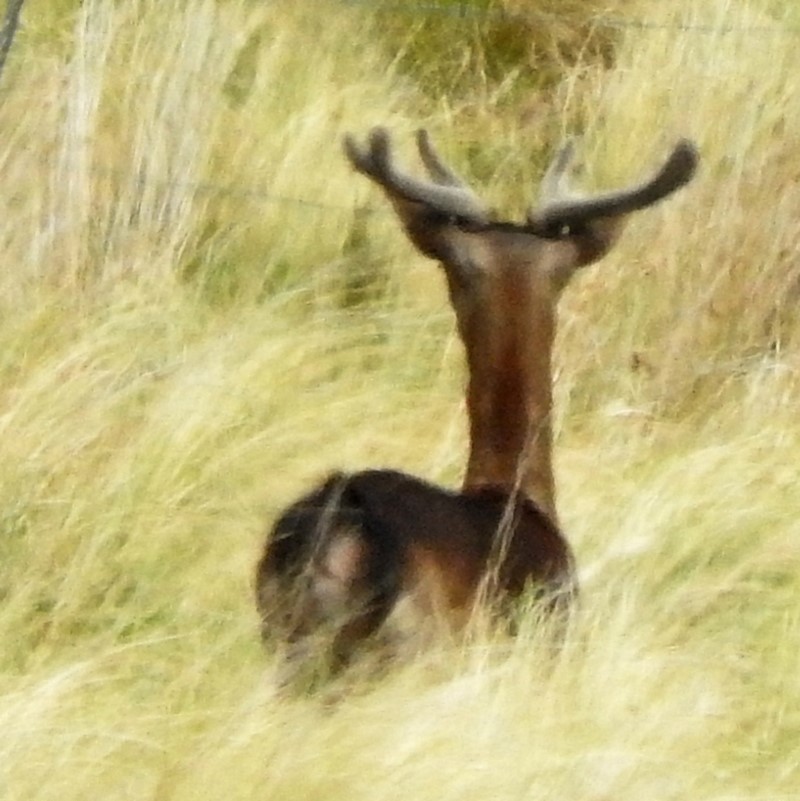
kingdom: Animalia
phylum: Chordata
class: Mammalia
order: Artiodactyla
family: Cervidae
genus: Dama
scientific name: Dama dama
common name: Fallow deer
